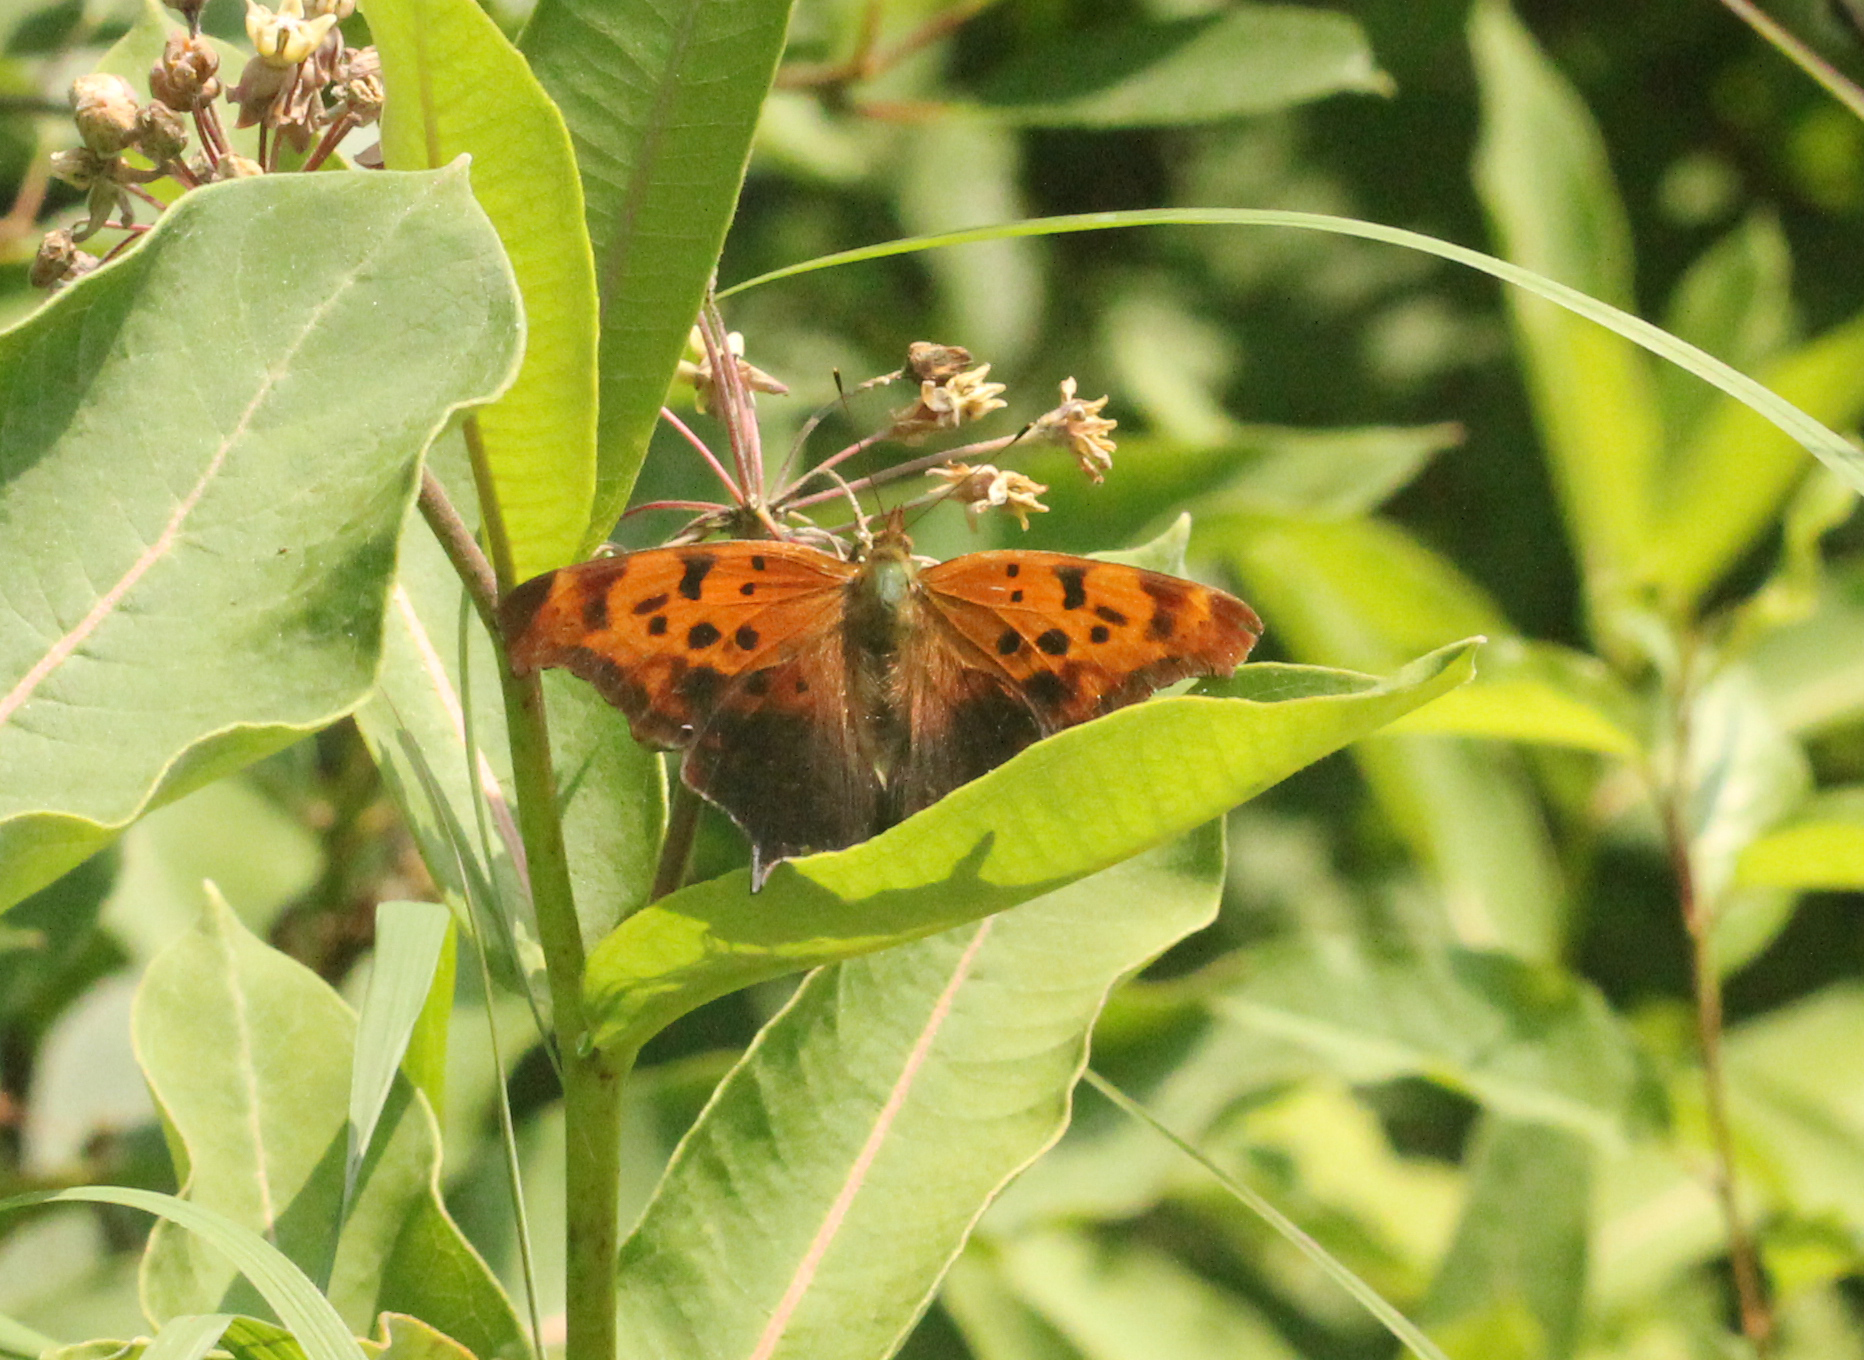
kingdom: Animalia
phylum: Arthropoda
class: Insecta
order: Lepidoptera
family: Nymphalidae
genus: Polygonia
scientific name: Polygonia interrogationis
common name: Question mark
